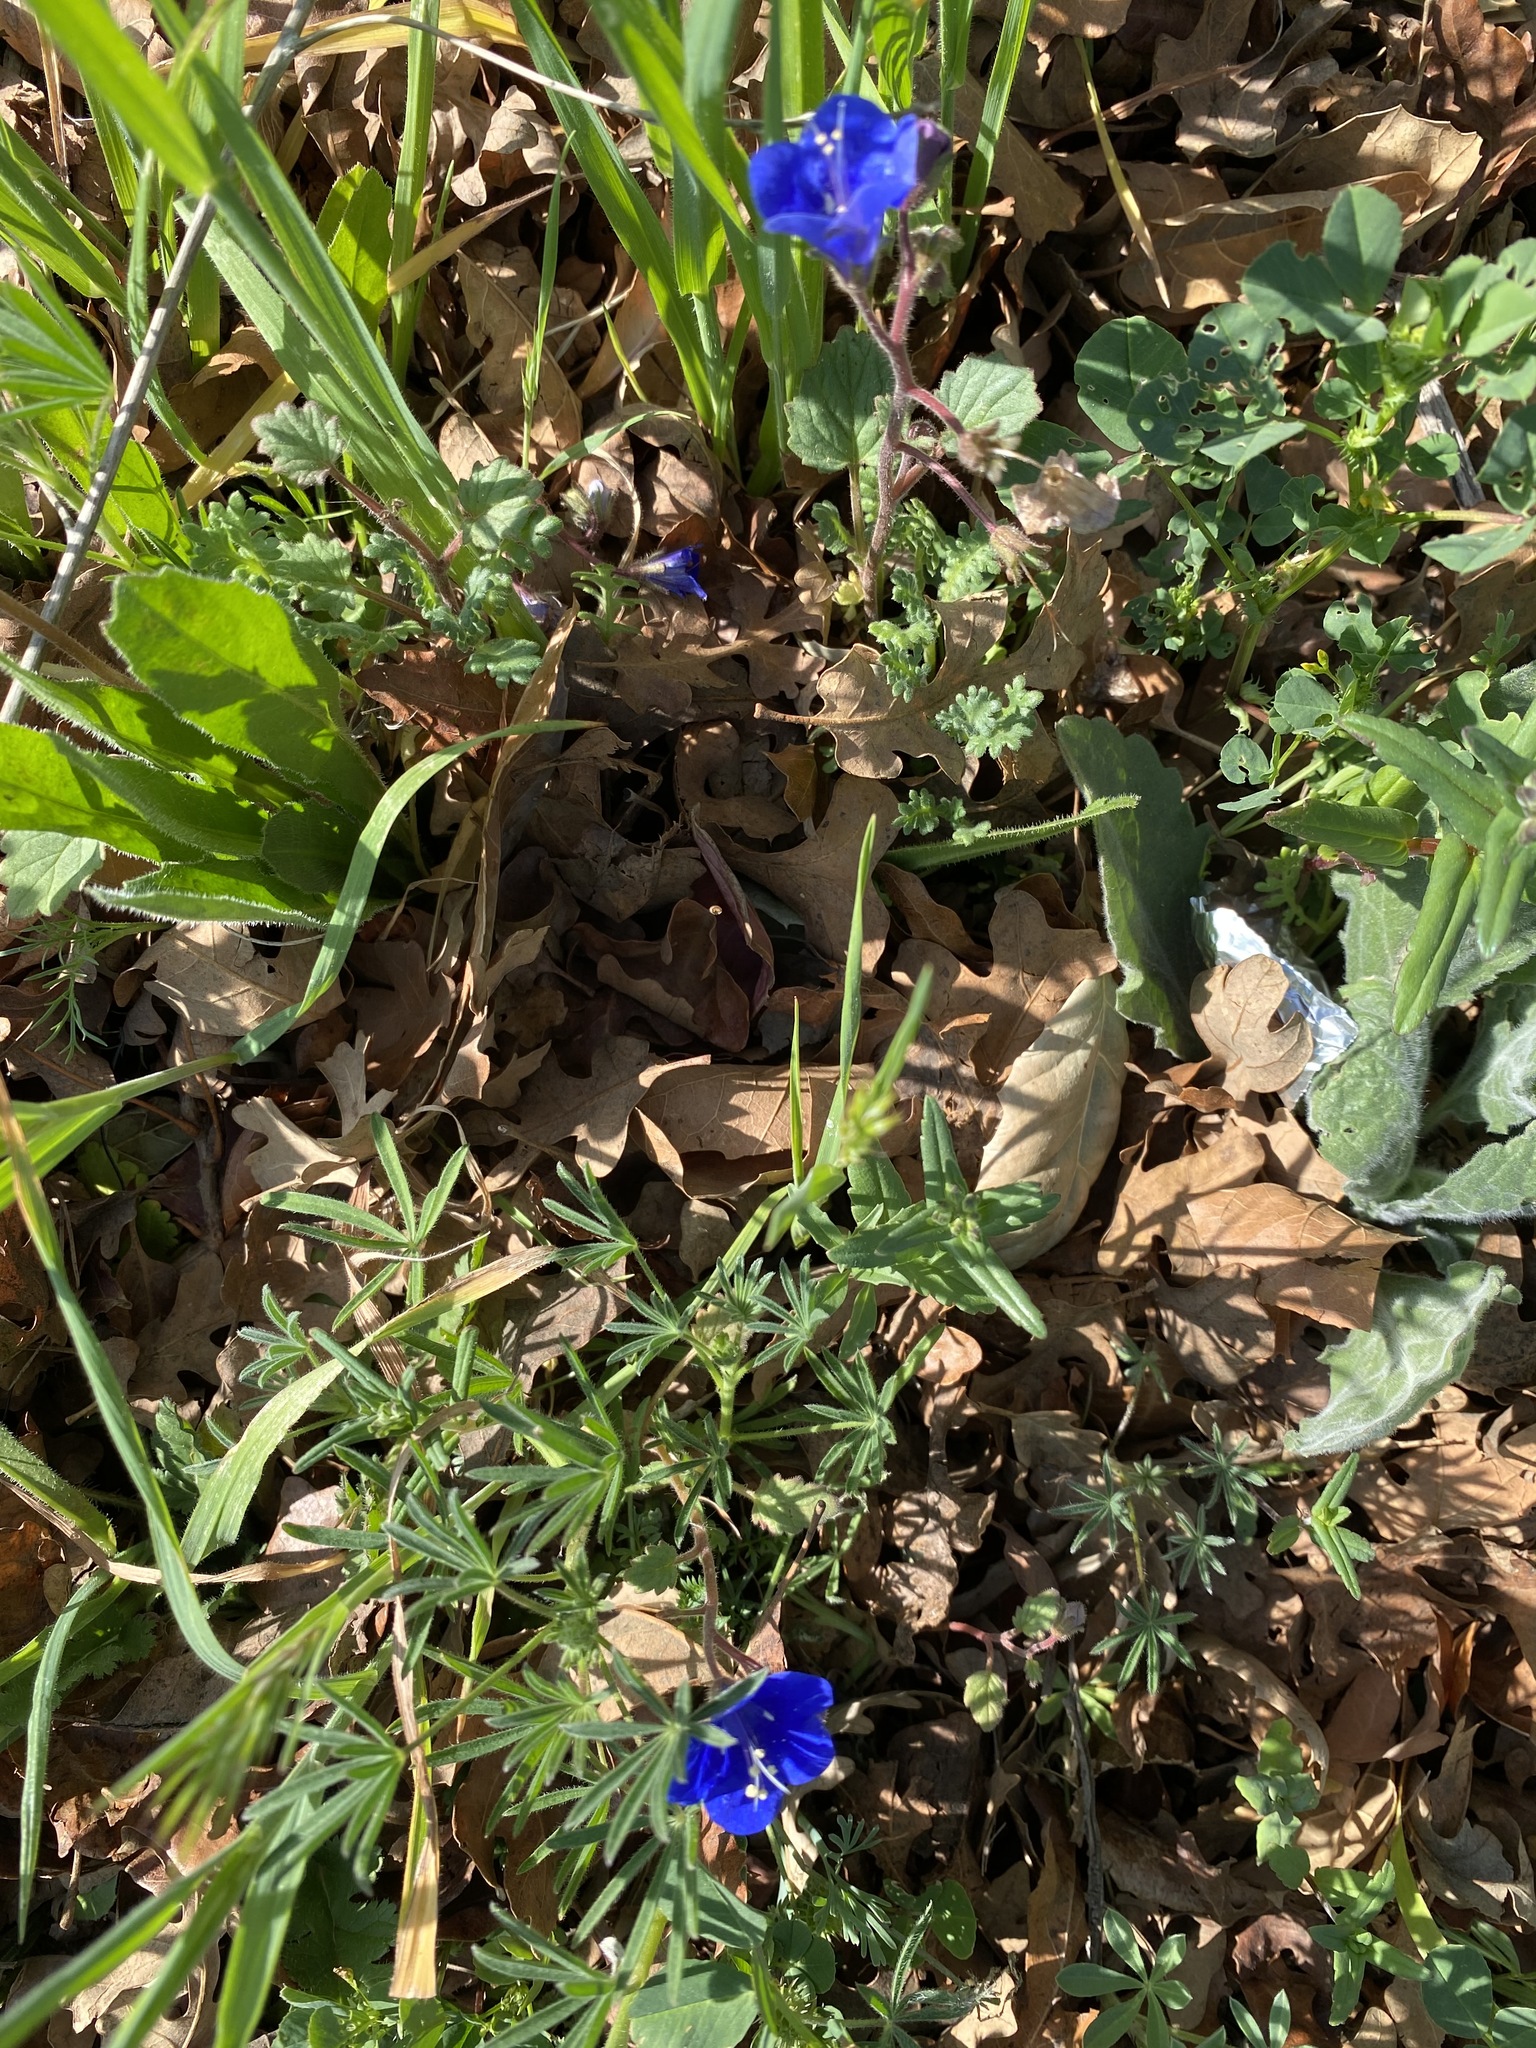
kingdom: Plantae
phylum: Tracheophyta
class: Magnoliopsida
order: Boraginales
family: Hydrophyllaceae
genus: Phacelia
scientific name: Phacelia campanularia
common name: California bluebell
